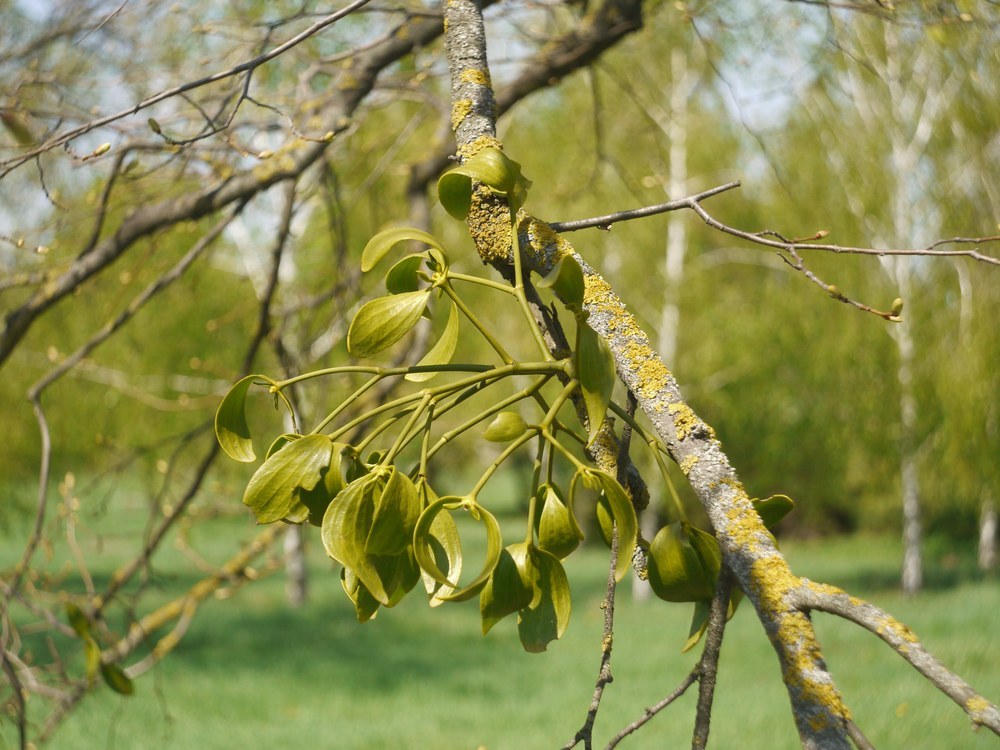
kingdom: Plantae
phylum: Tracheophyta
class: Magnoliopsida
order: Santalales
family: Viscaceae
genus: Viscum
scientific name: Viscum album
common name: Mistletoe
